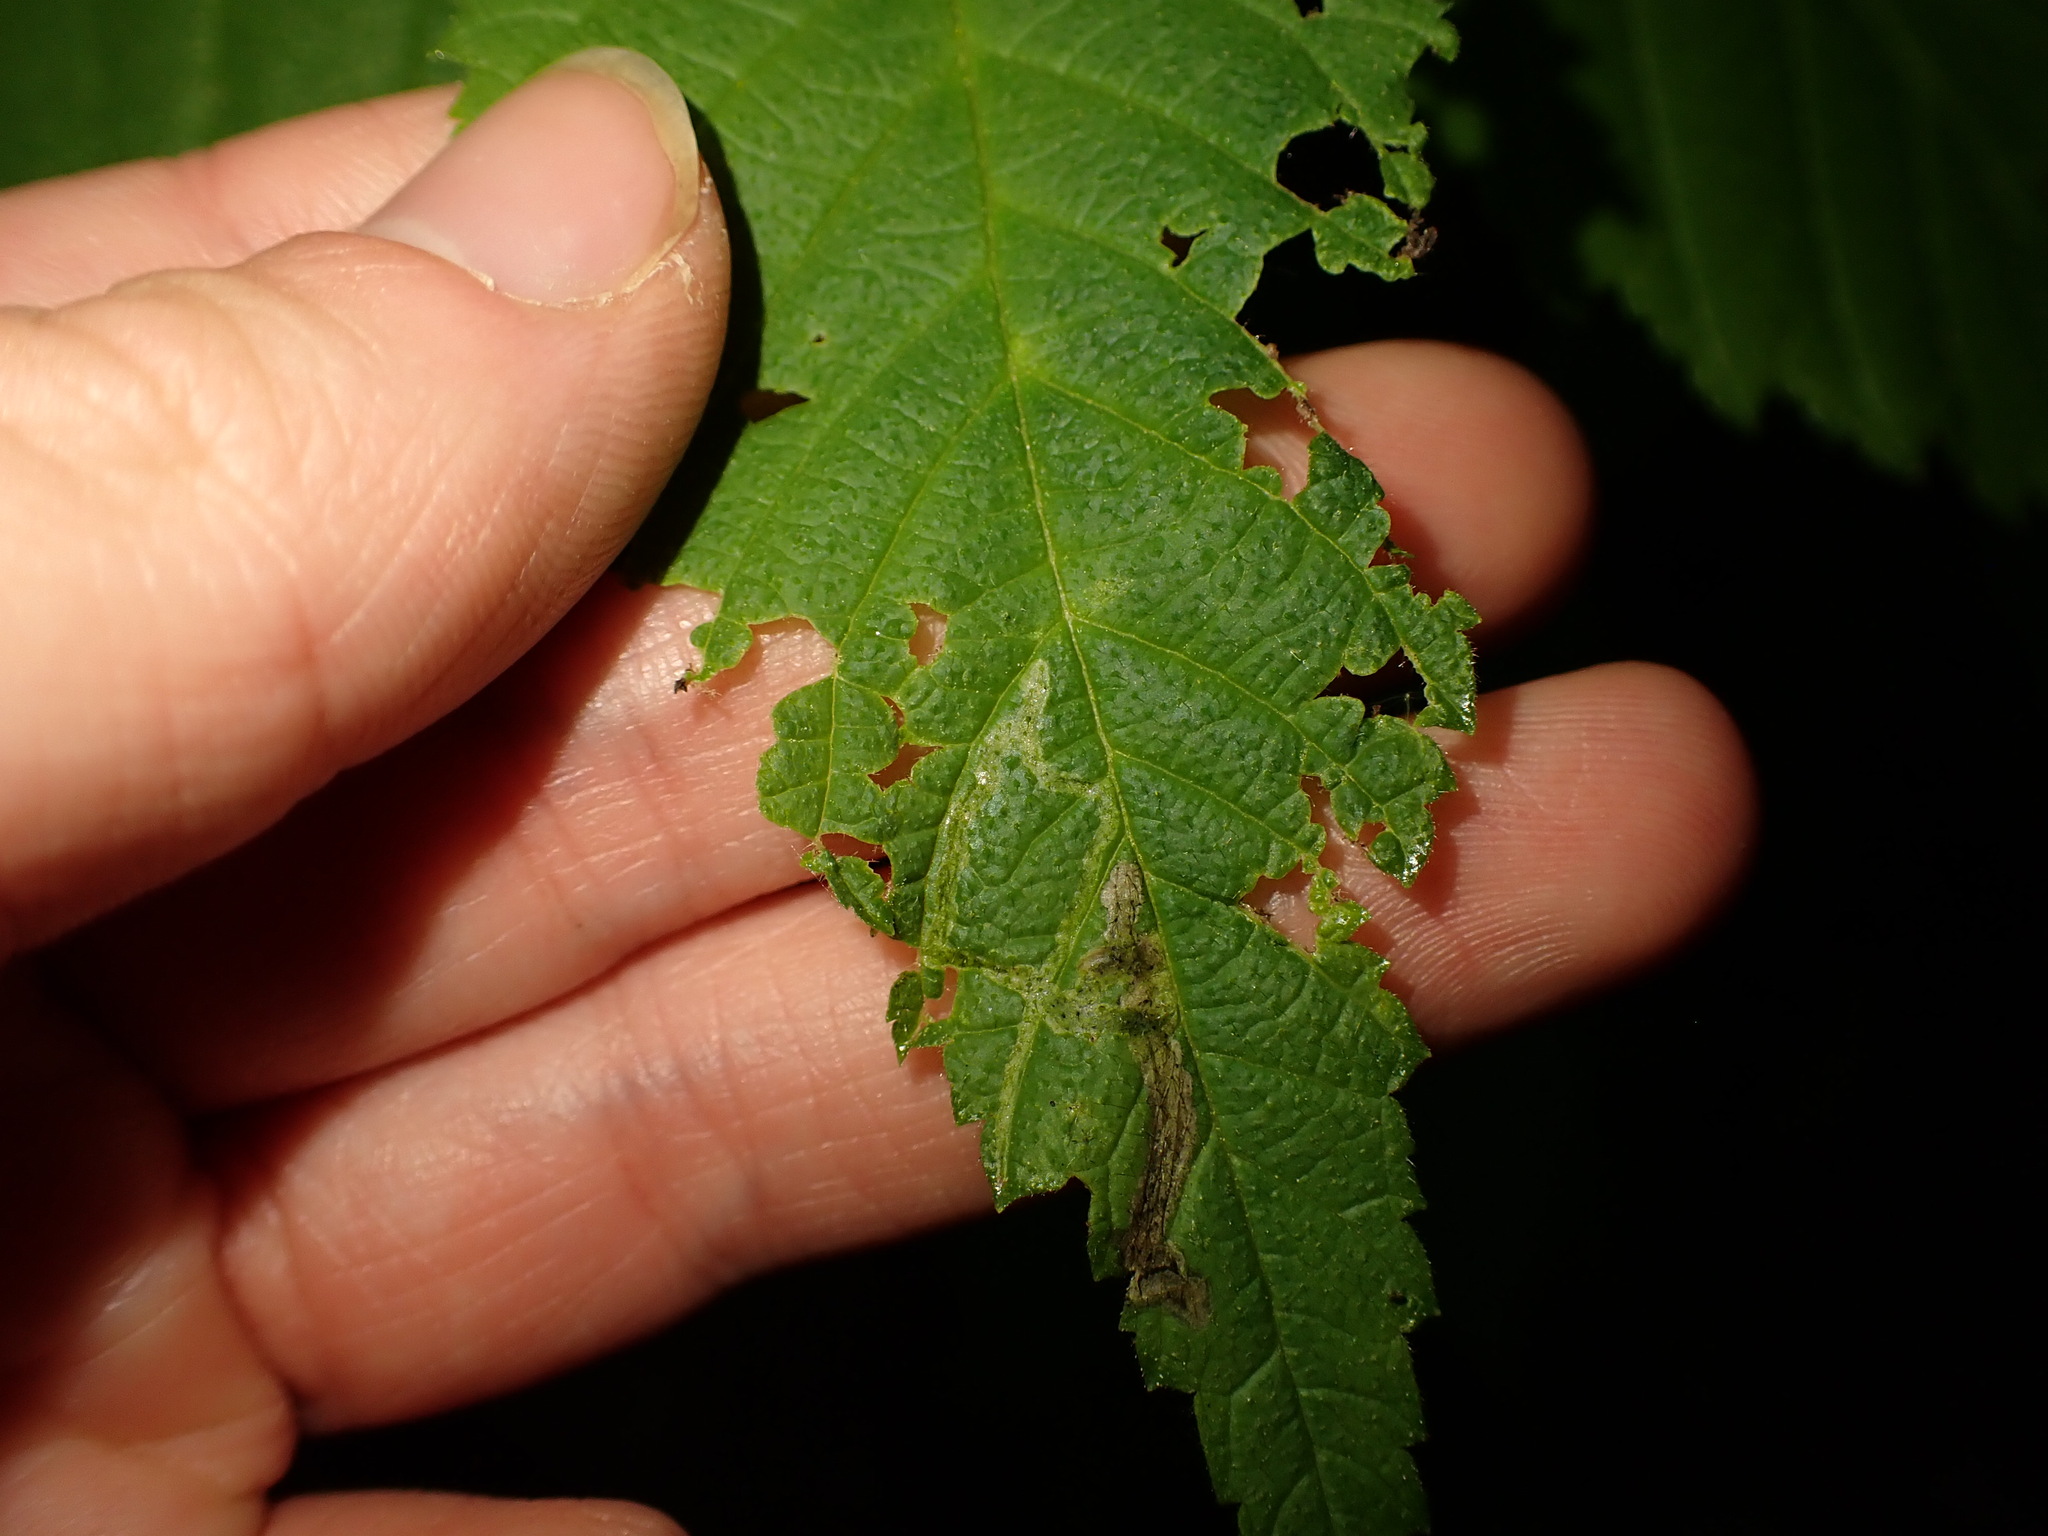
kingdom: Animalia
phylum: Arthropoda
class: Insecta
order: Diptera
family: Agromyzidae
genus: Agromyza
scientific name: Agromyza aristata
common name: Elm agromyzid leafminer
